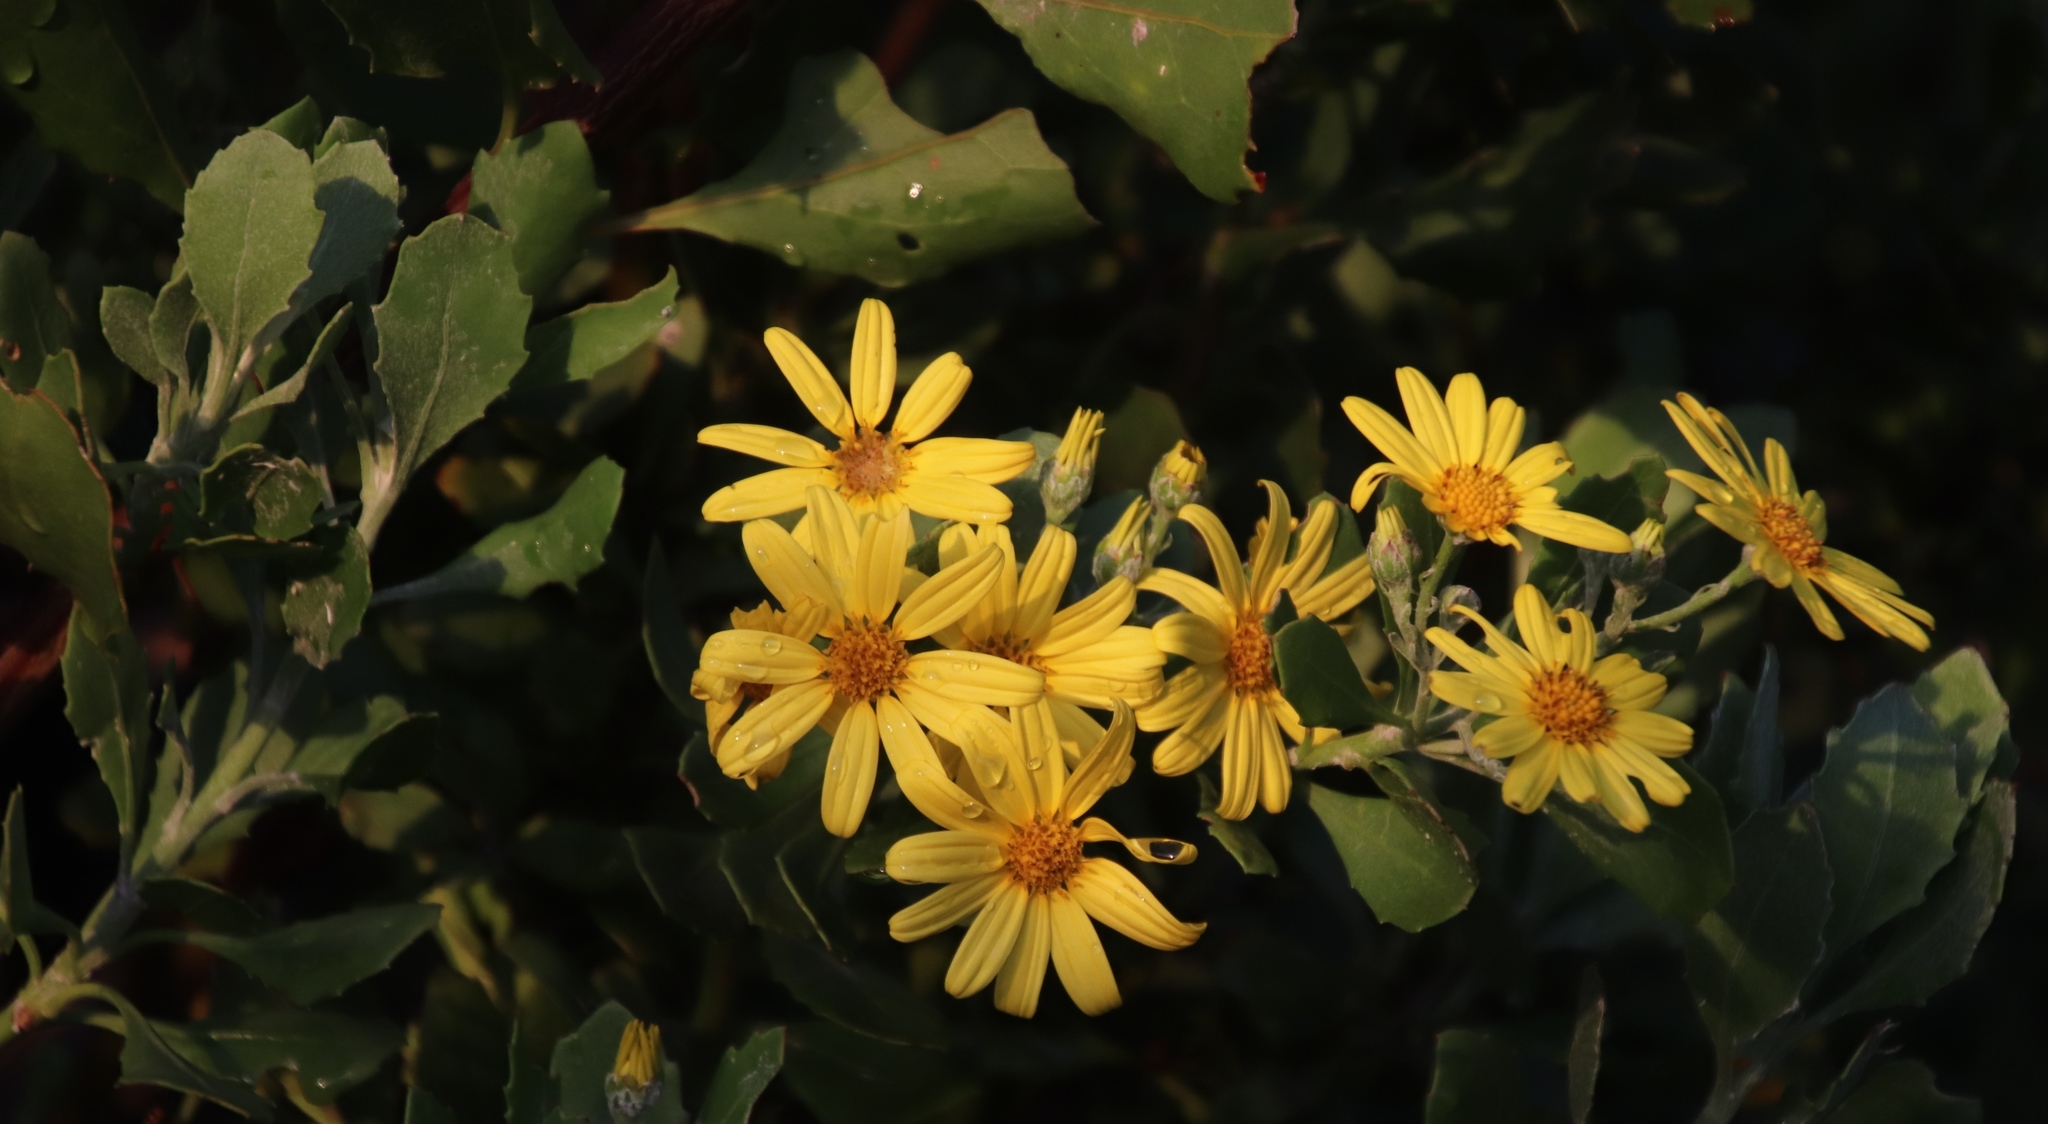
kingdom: Plantae
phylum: Tracheophyta
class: Magnoliopsida
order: Asterales
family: Asteraceae
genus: Osteospermum
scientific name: Osteospermum moniliferum
